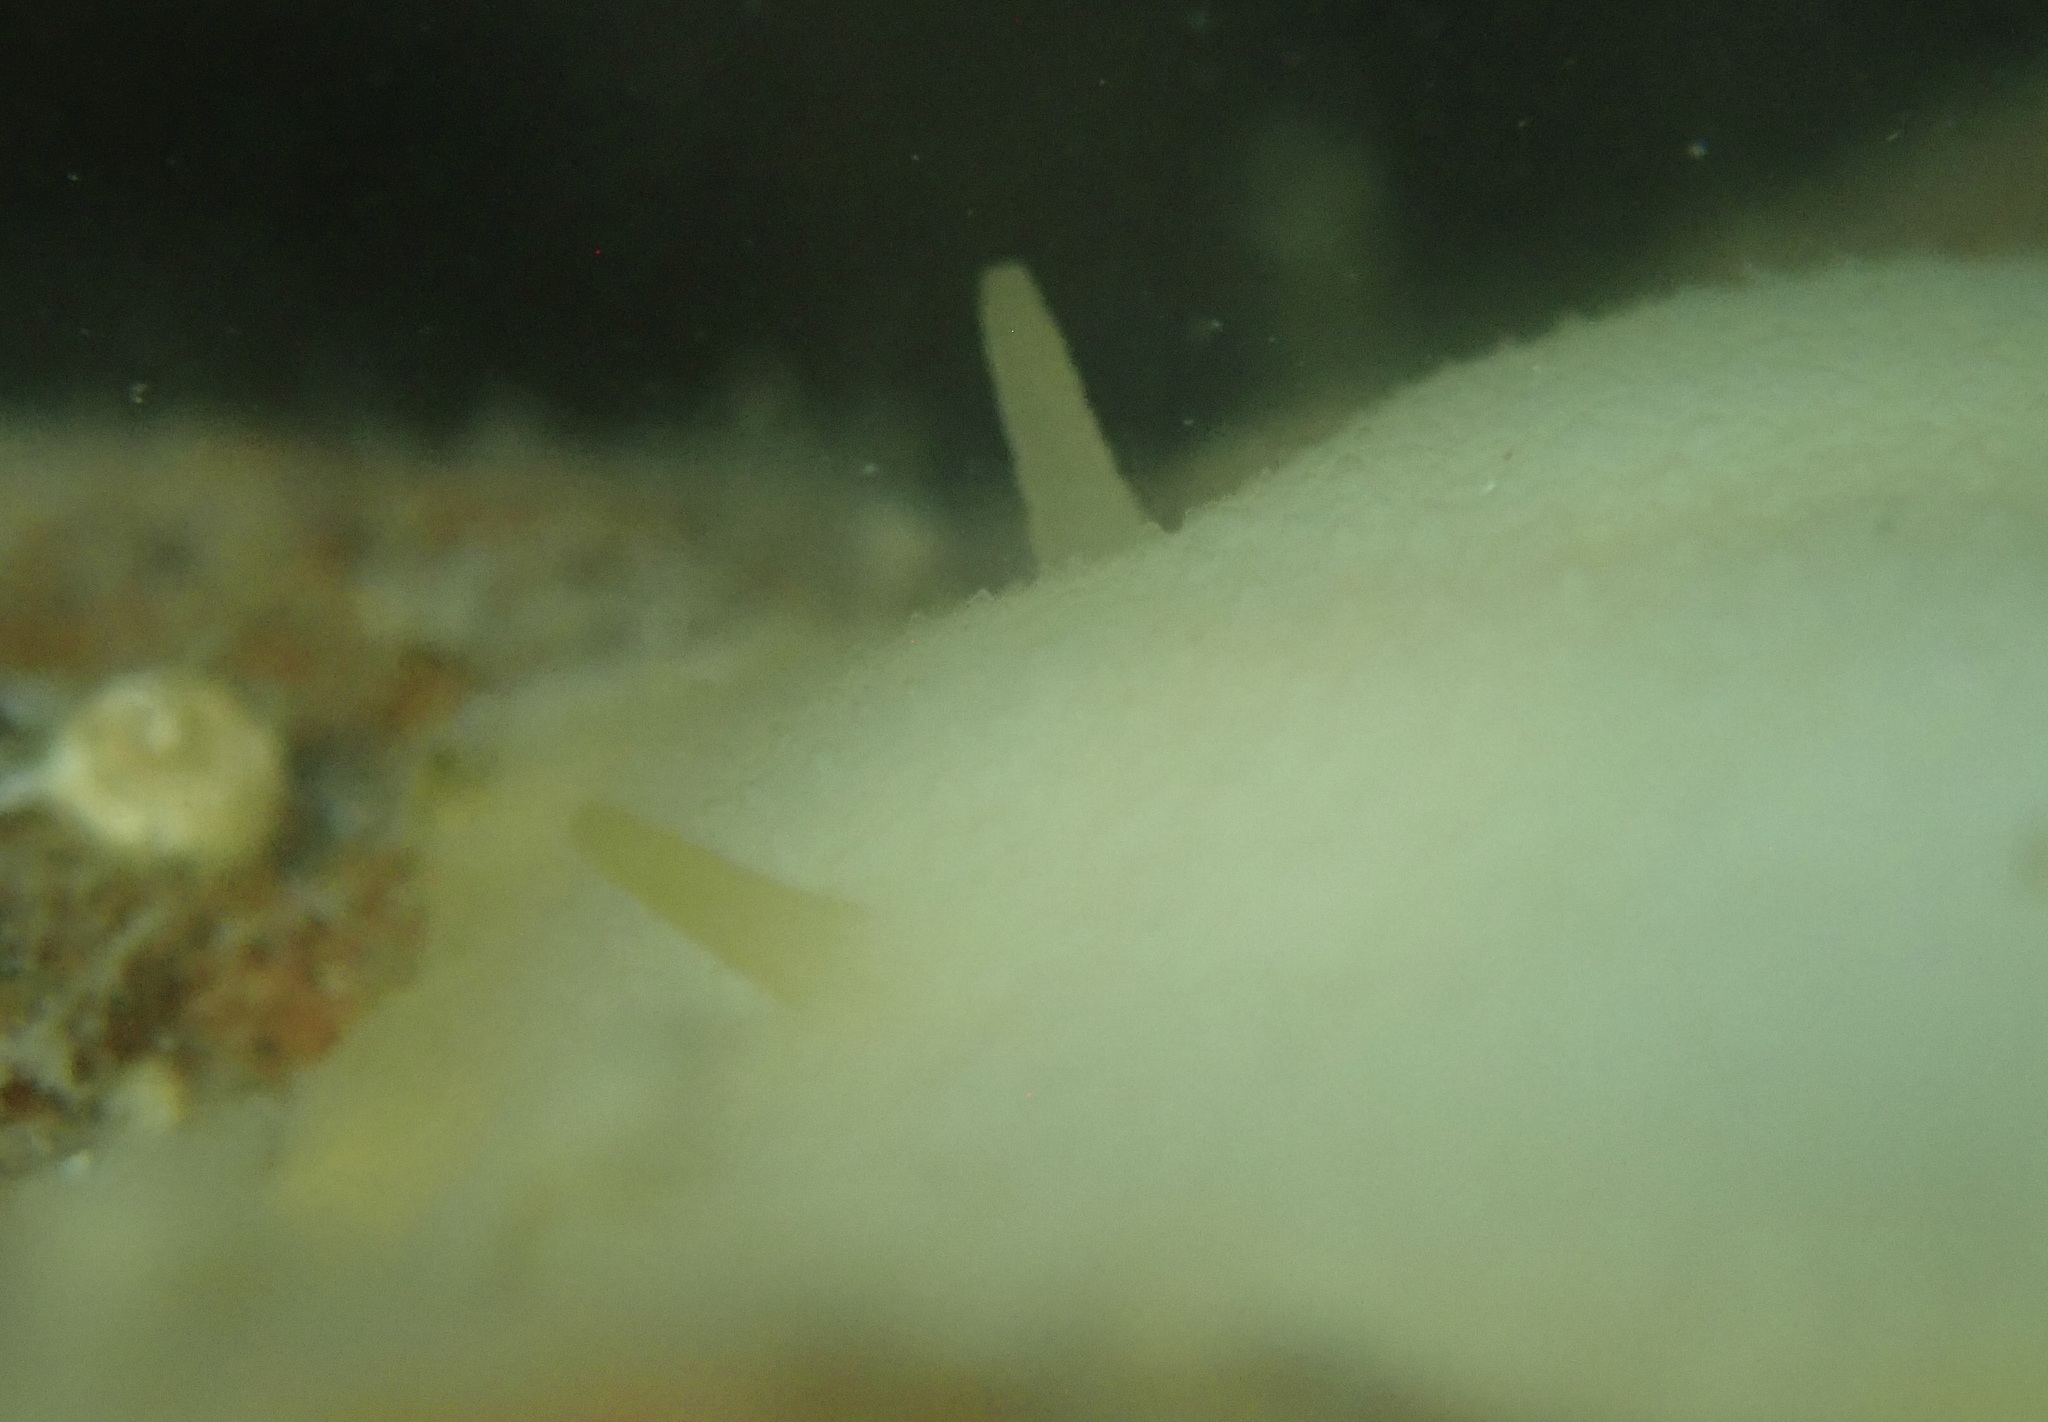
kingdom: Animalia
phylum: Mollusca
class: Gastropoda
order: Nudibranchia
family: Dorididae
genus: Conualevia
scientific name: Conualevia marcusi
